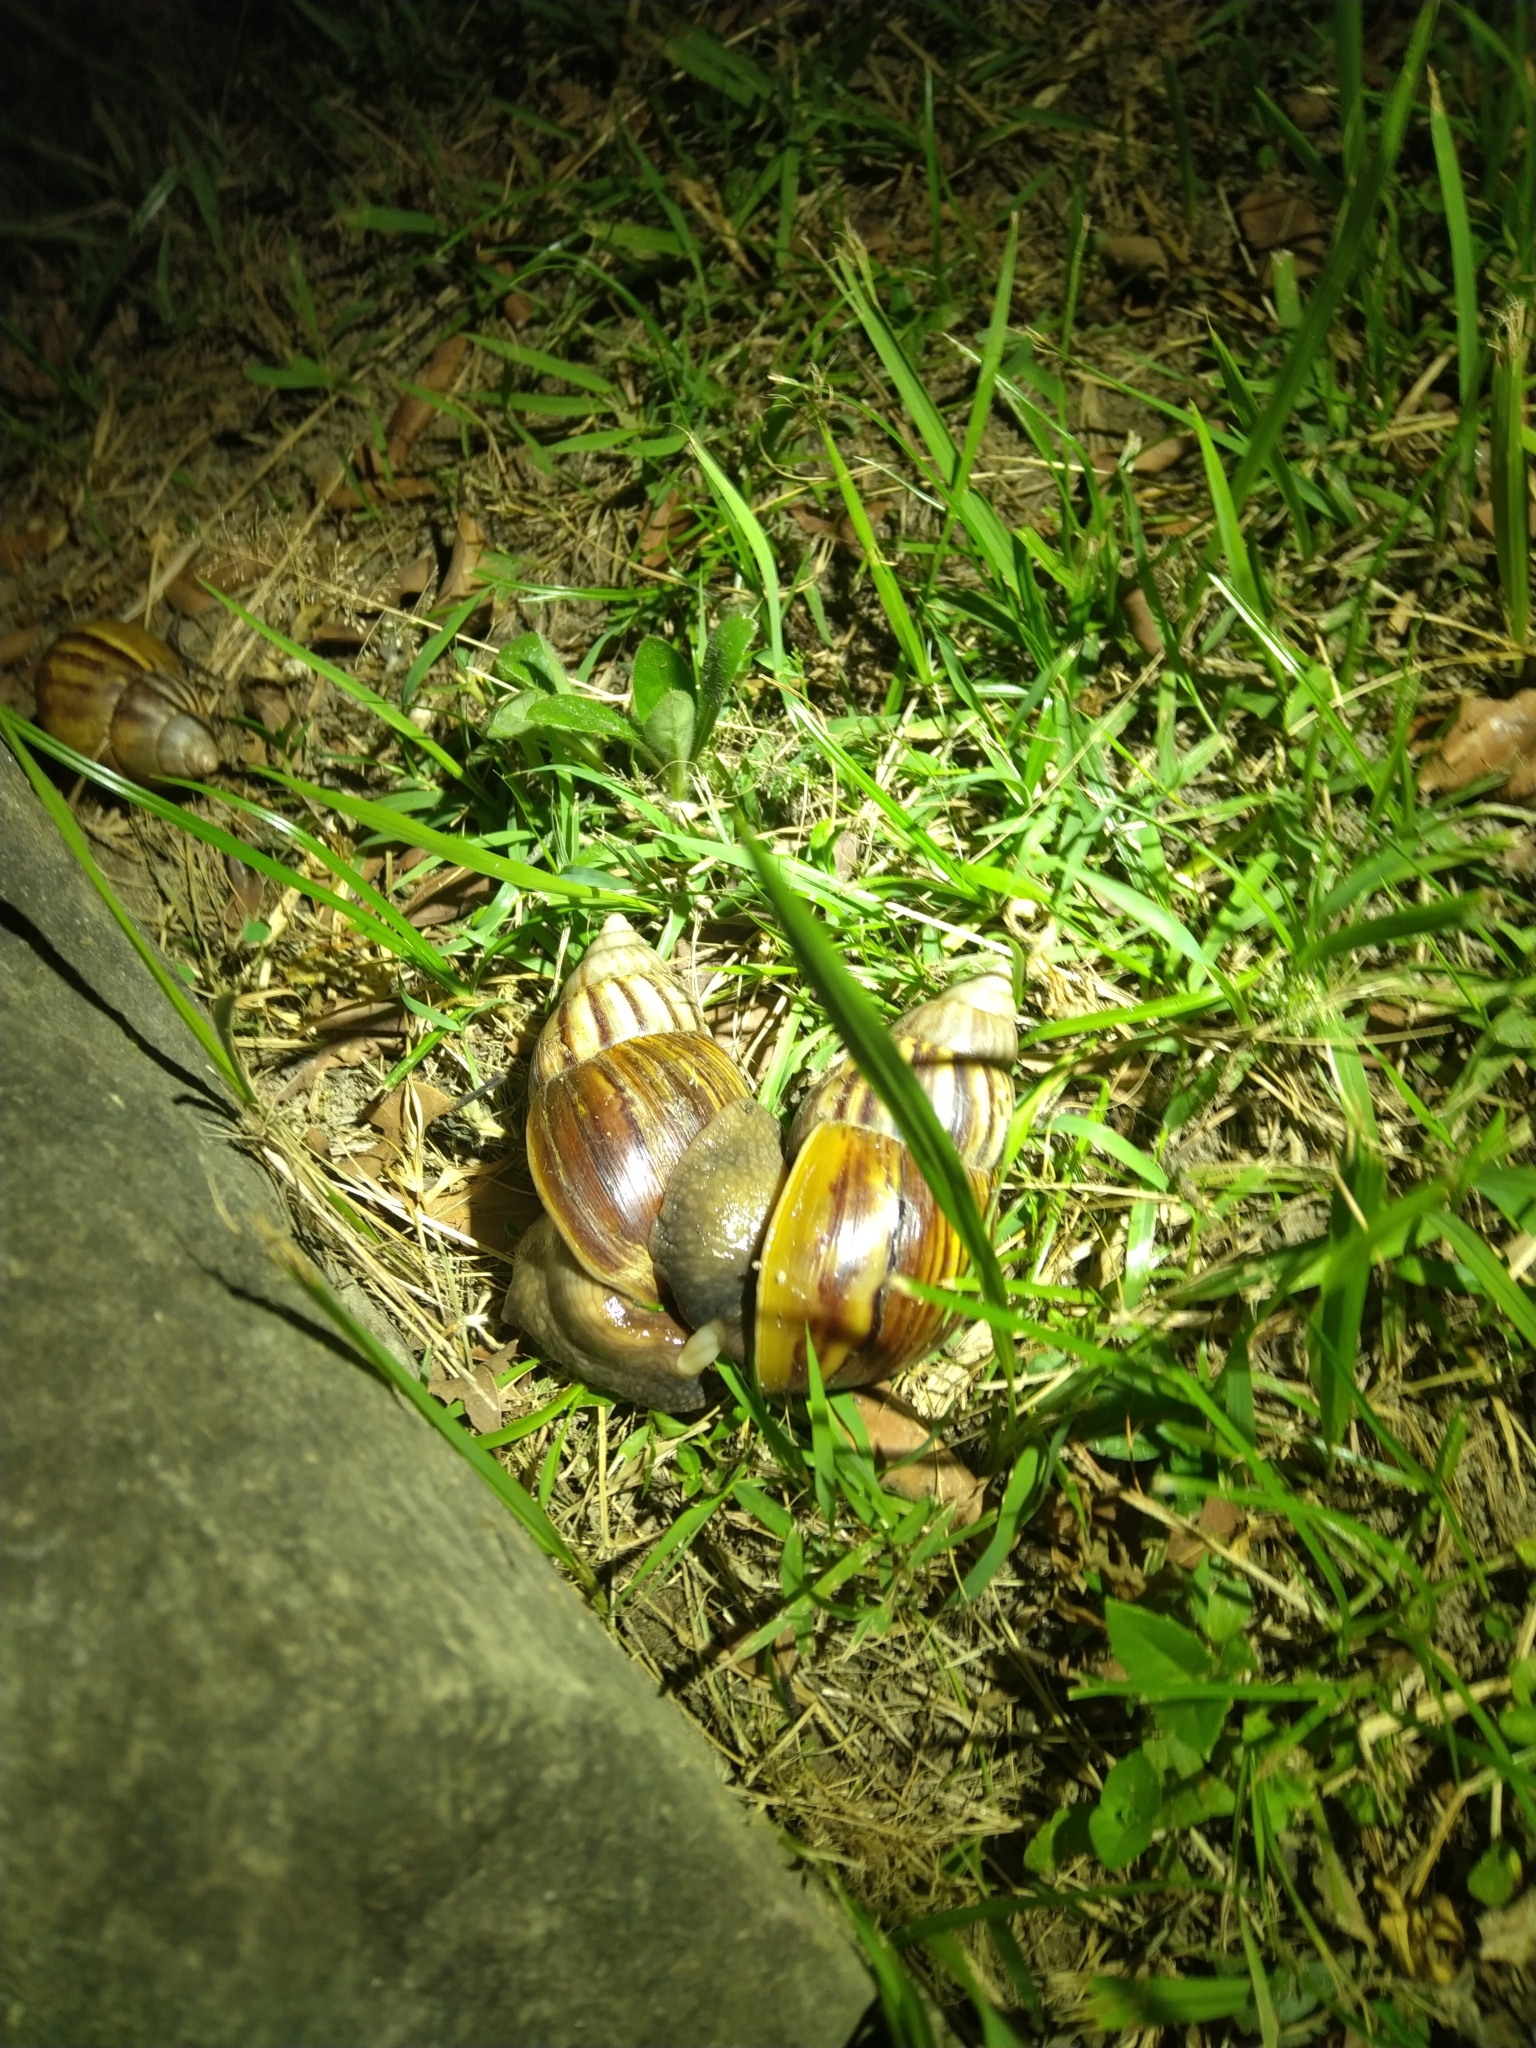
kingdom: Animalia
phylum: Mollusca
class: Gastropoda
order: Stylommatophora
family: Achatinidae
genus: Lissachatina
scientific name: Lissachatina fulica
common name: Giant african snail
